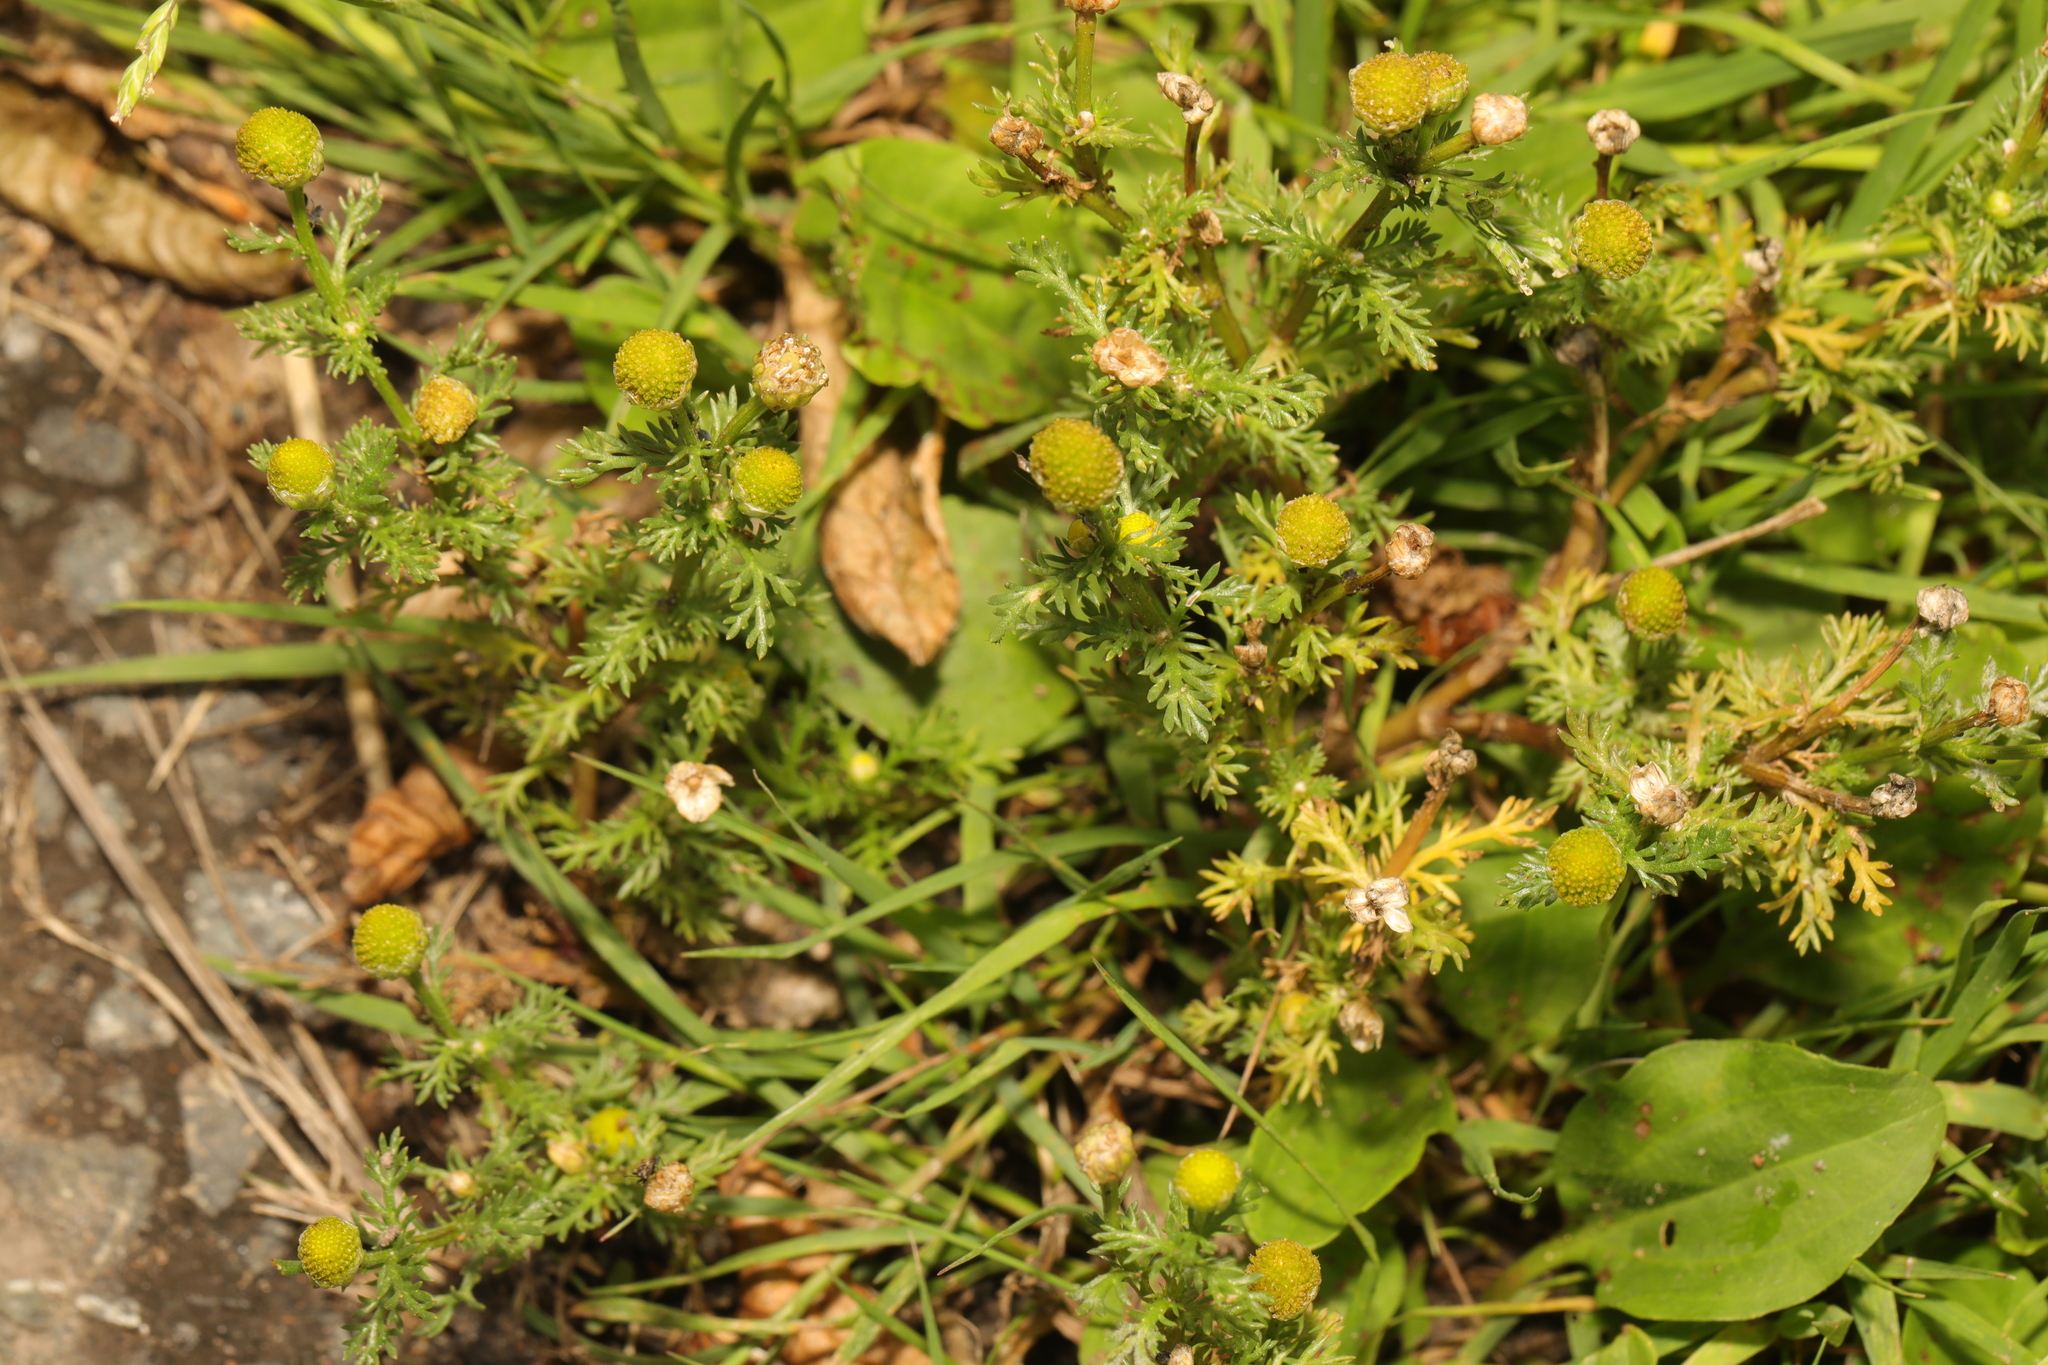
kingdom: Plantae
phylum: Tracheophyta
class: Magnoliopsida
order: Asterales
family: Asteraceae
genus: Matricaria
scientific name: Matricaria discoidea
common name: Disc mayweed
